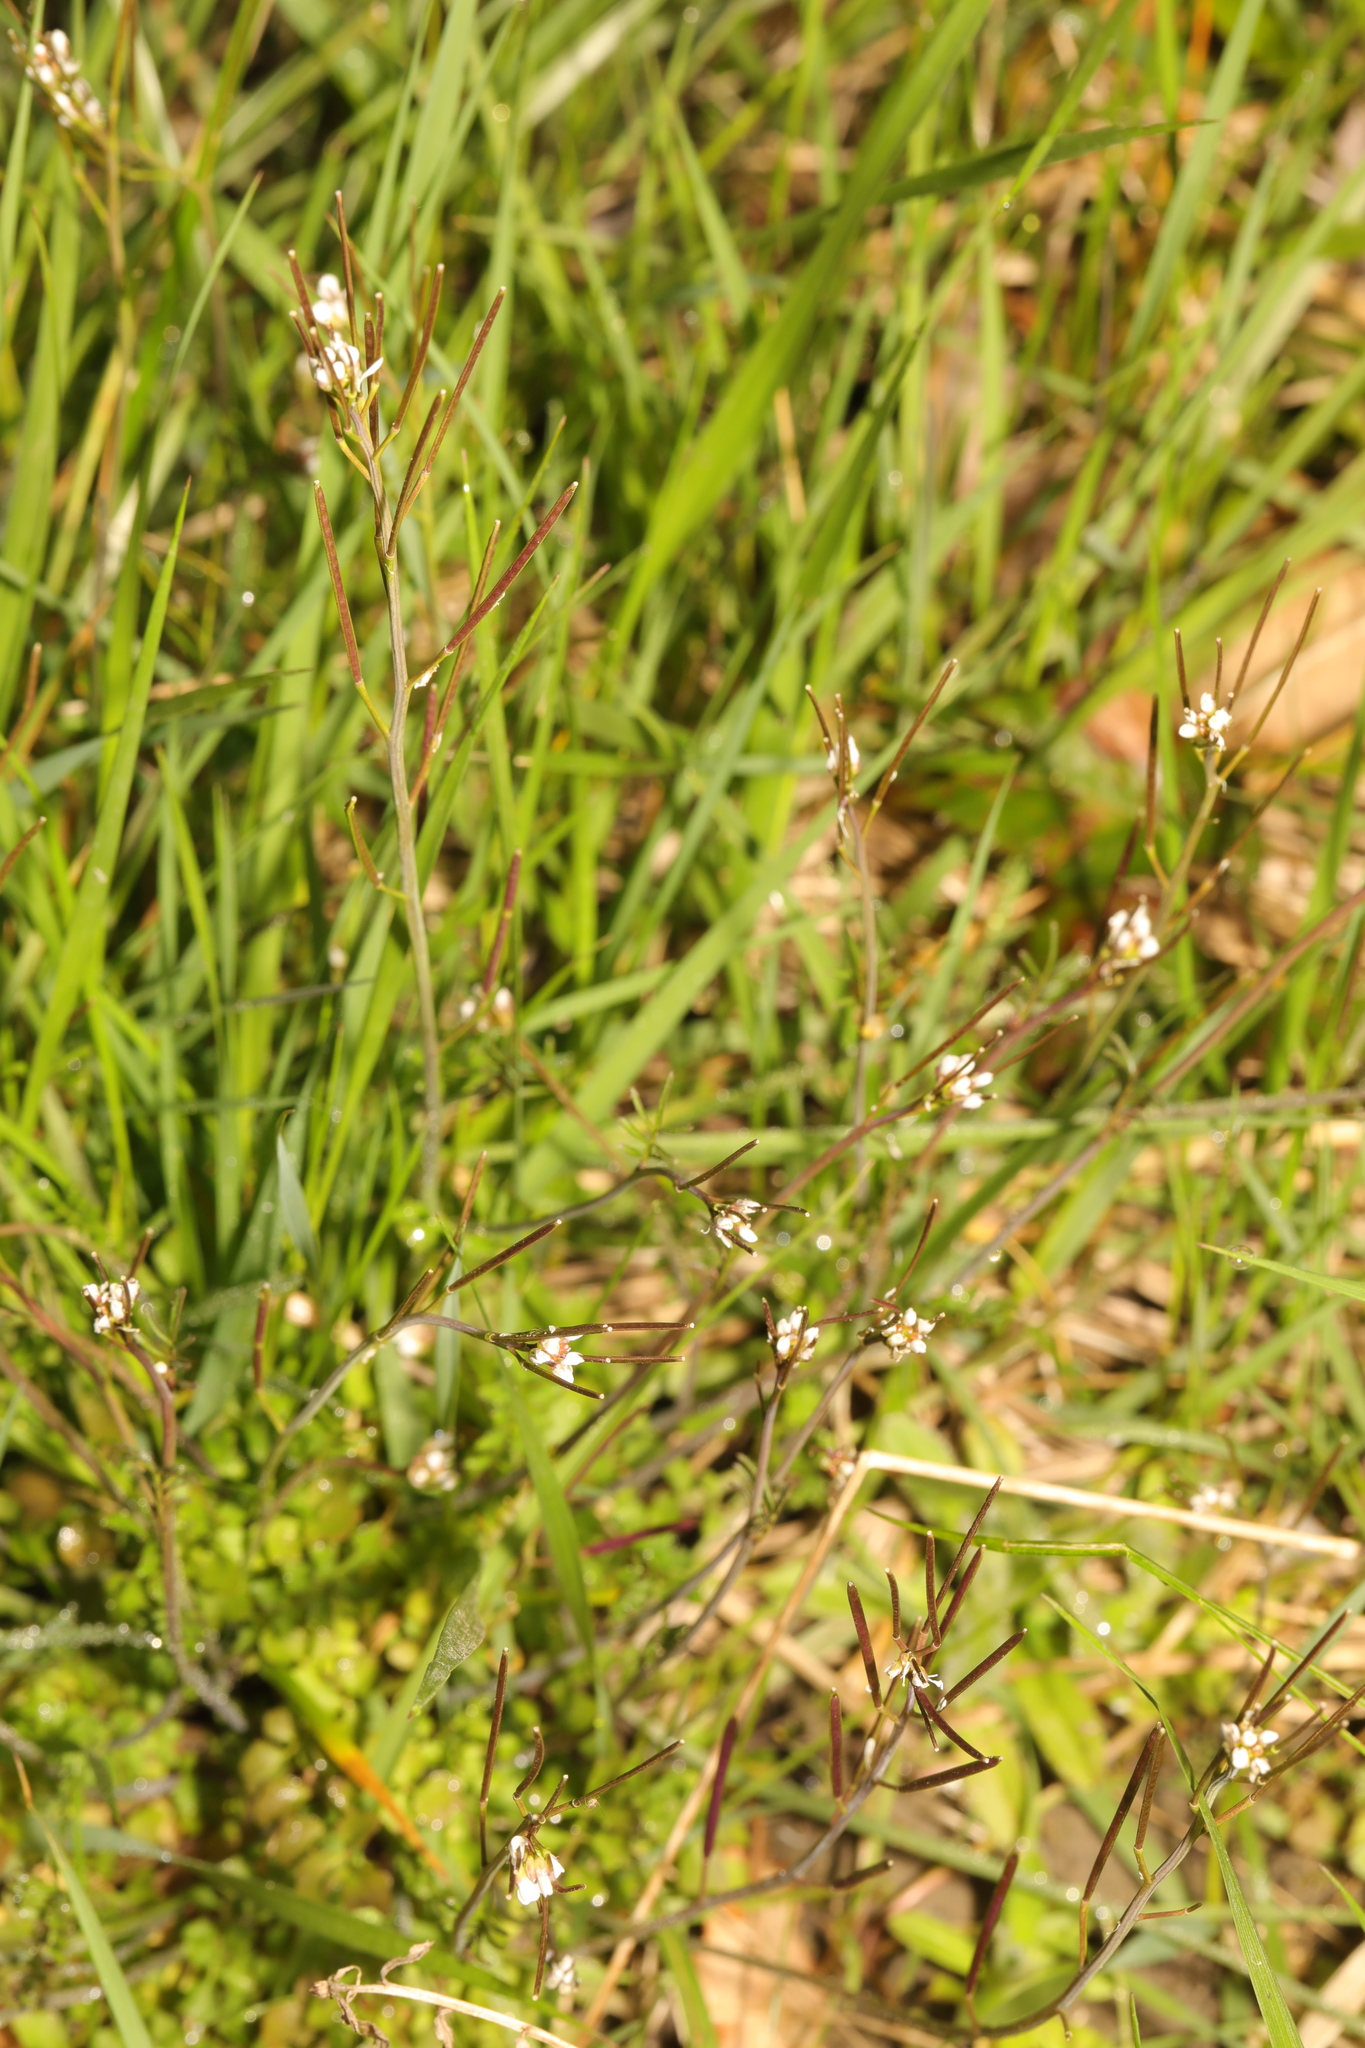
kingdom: Plantae
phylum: Tracheophyta
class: Magnoliopsida
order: Brassicales
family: Brassicaceae
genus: Cardamine
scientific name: Cardamine hirsuta
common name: Hairy bittercress
